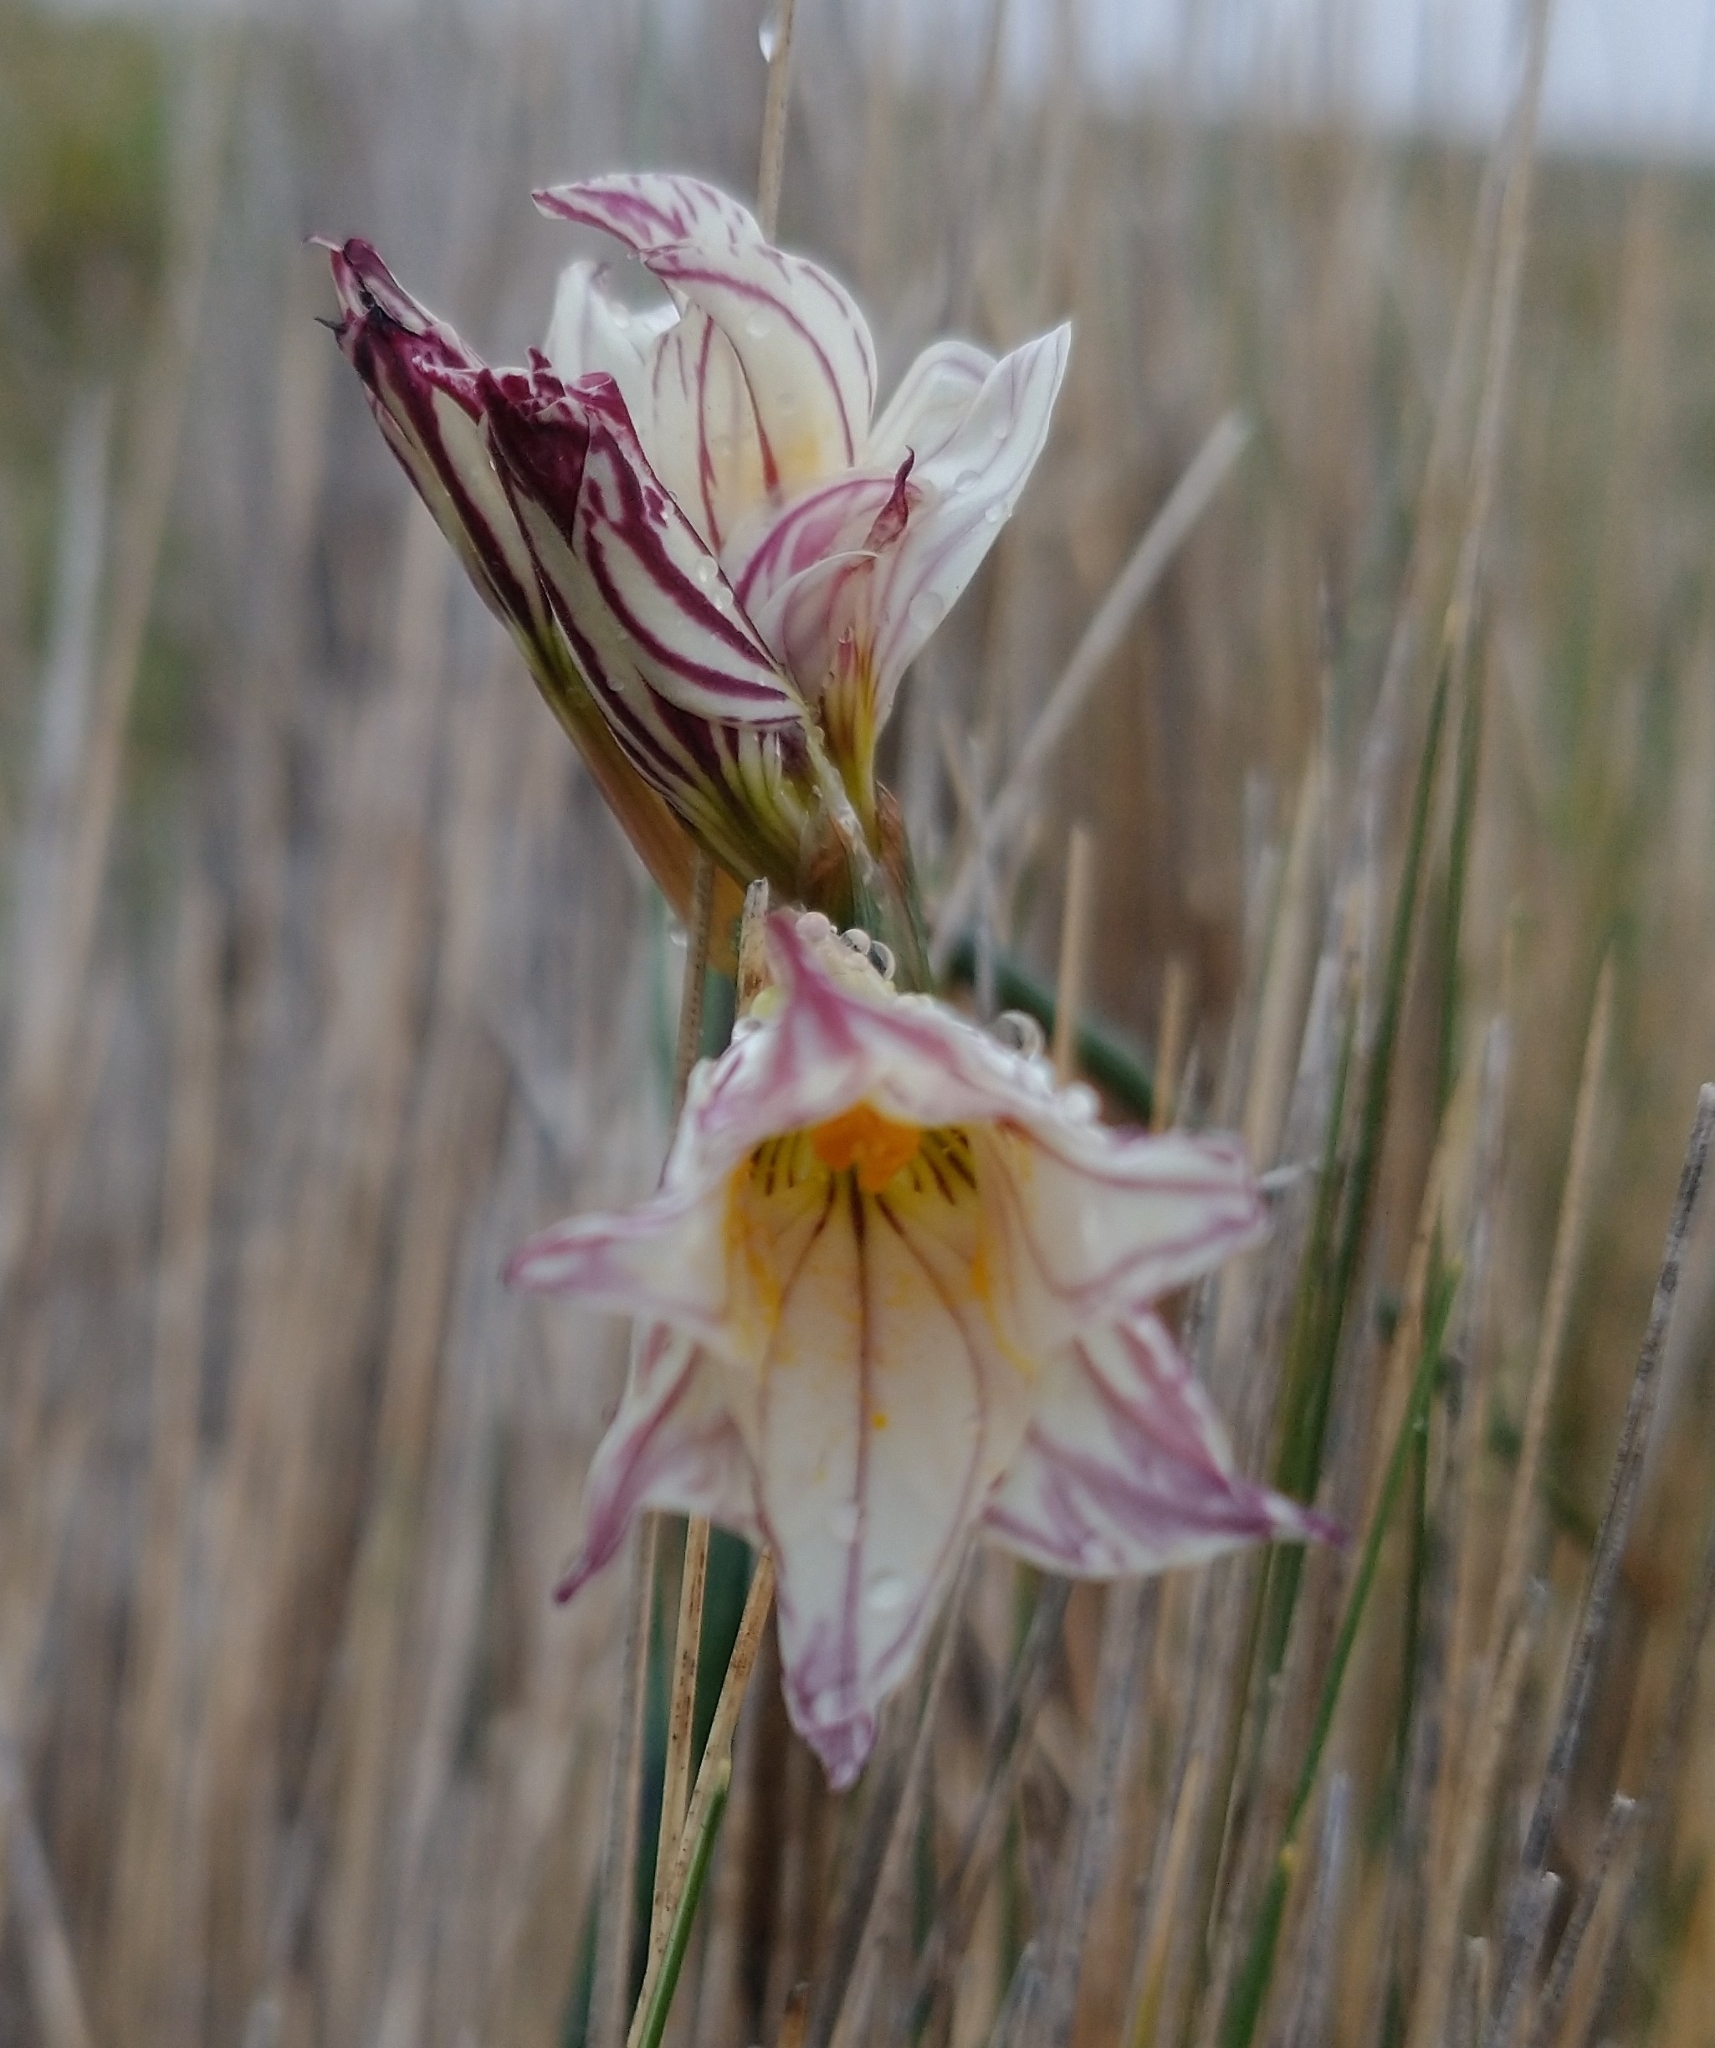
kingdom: Plantae
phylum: Tracheophyta
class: Liliopsida
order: Asparagales
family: Iridaceae
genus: Olsynium
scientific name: Olsynium biflorum
